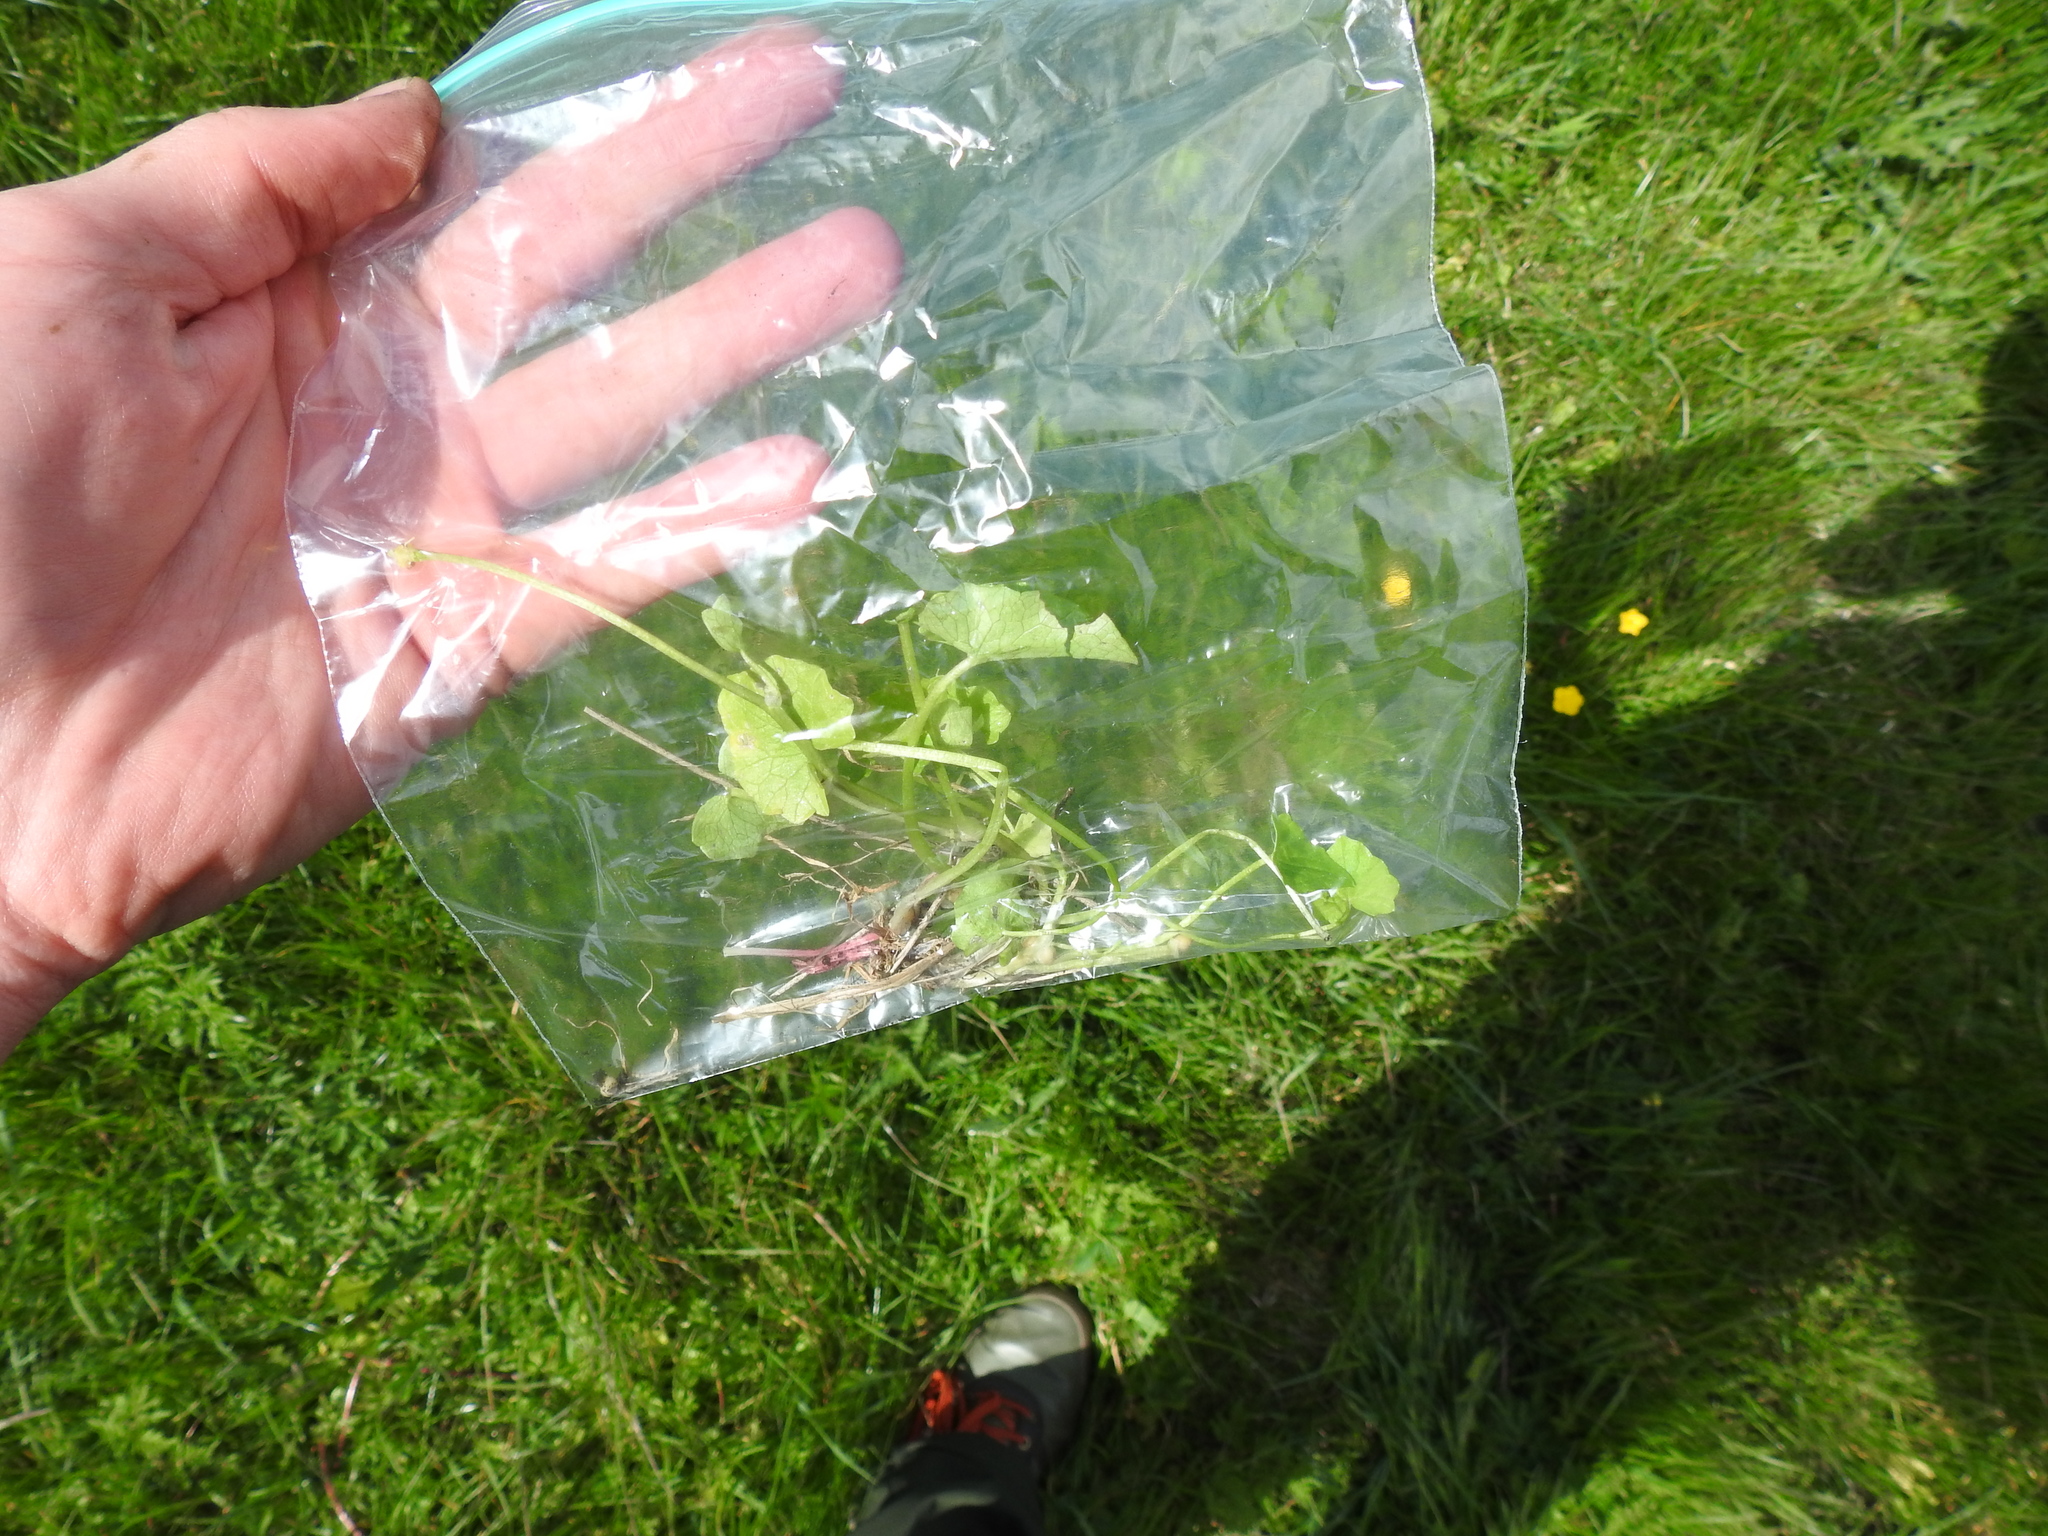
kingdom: Plantae
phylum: Tracheophyta
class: Magnoliopsida
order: Ranunculales
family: Ranunculaceae
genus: Ficaria
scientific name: Ficaria verna
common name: Lesser celandine
